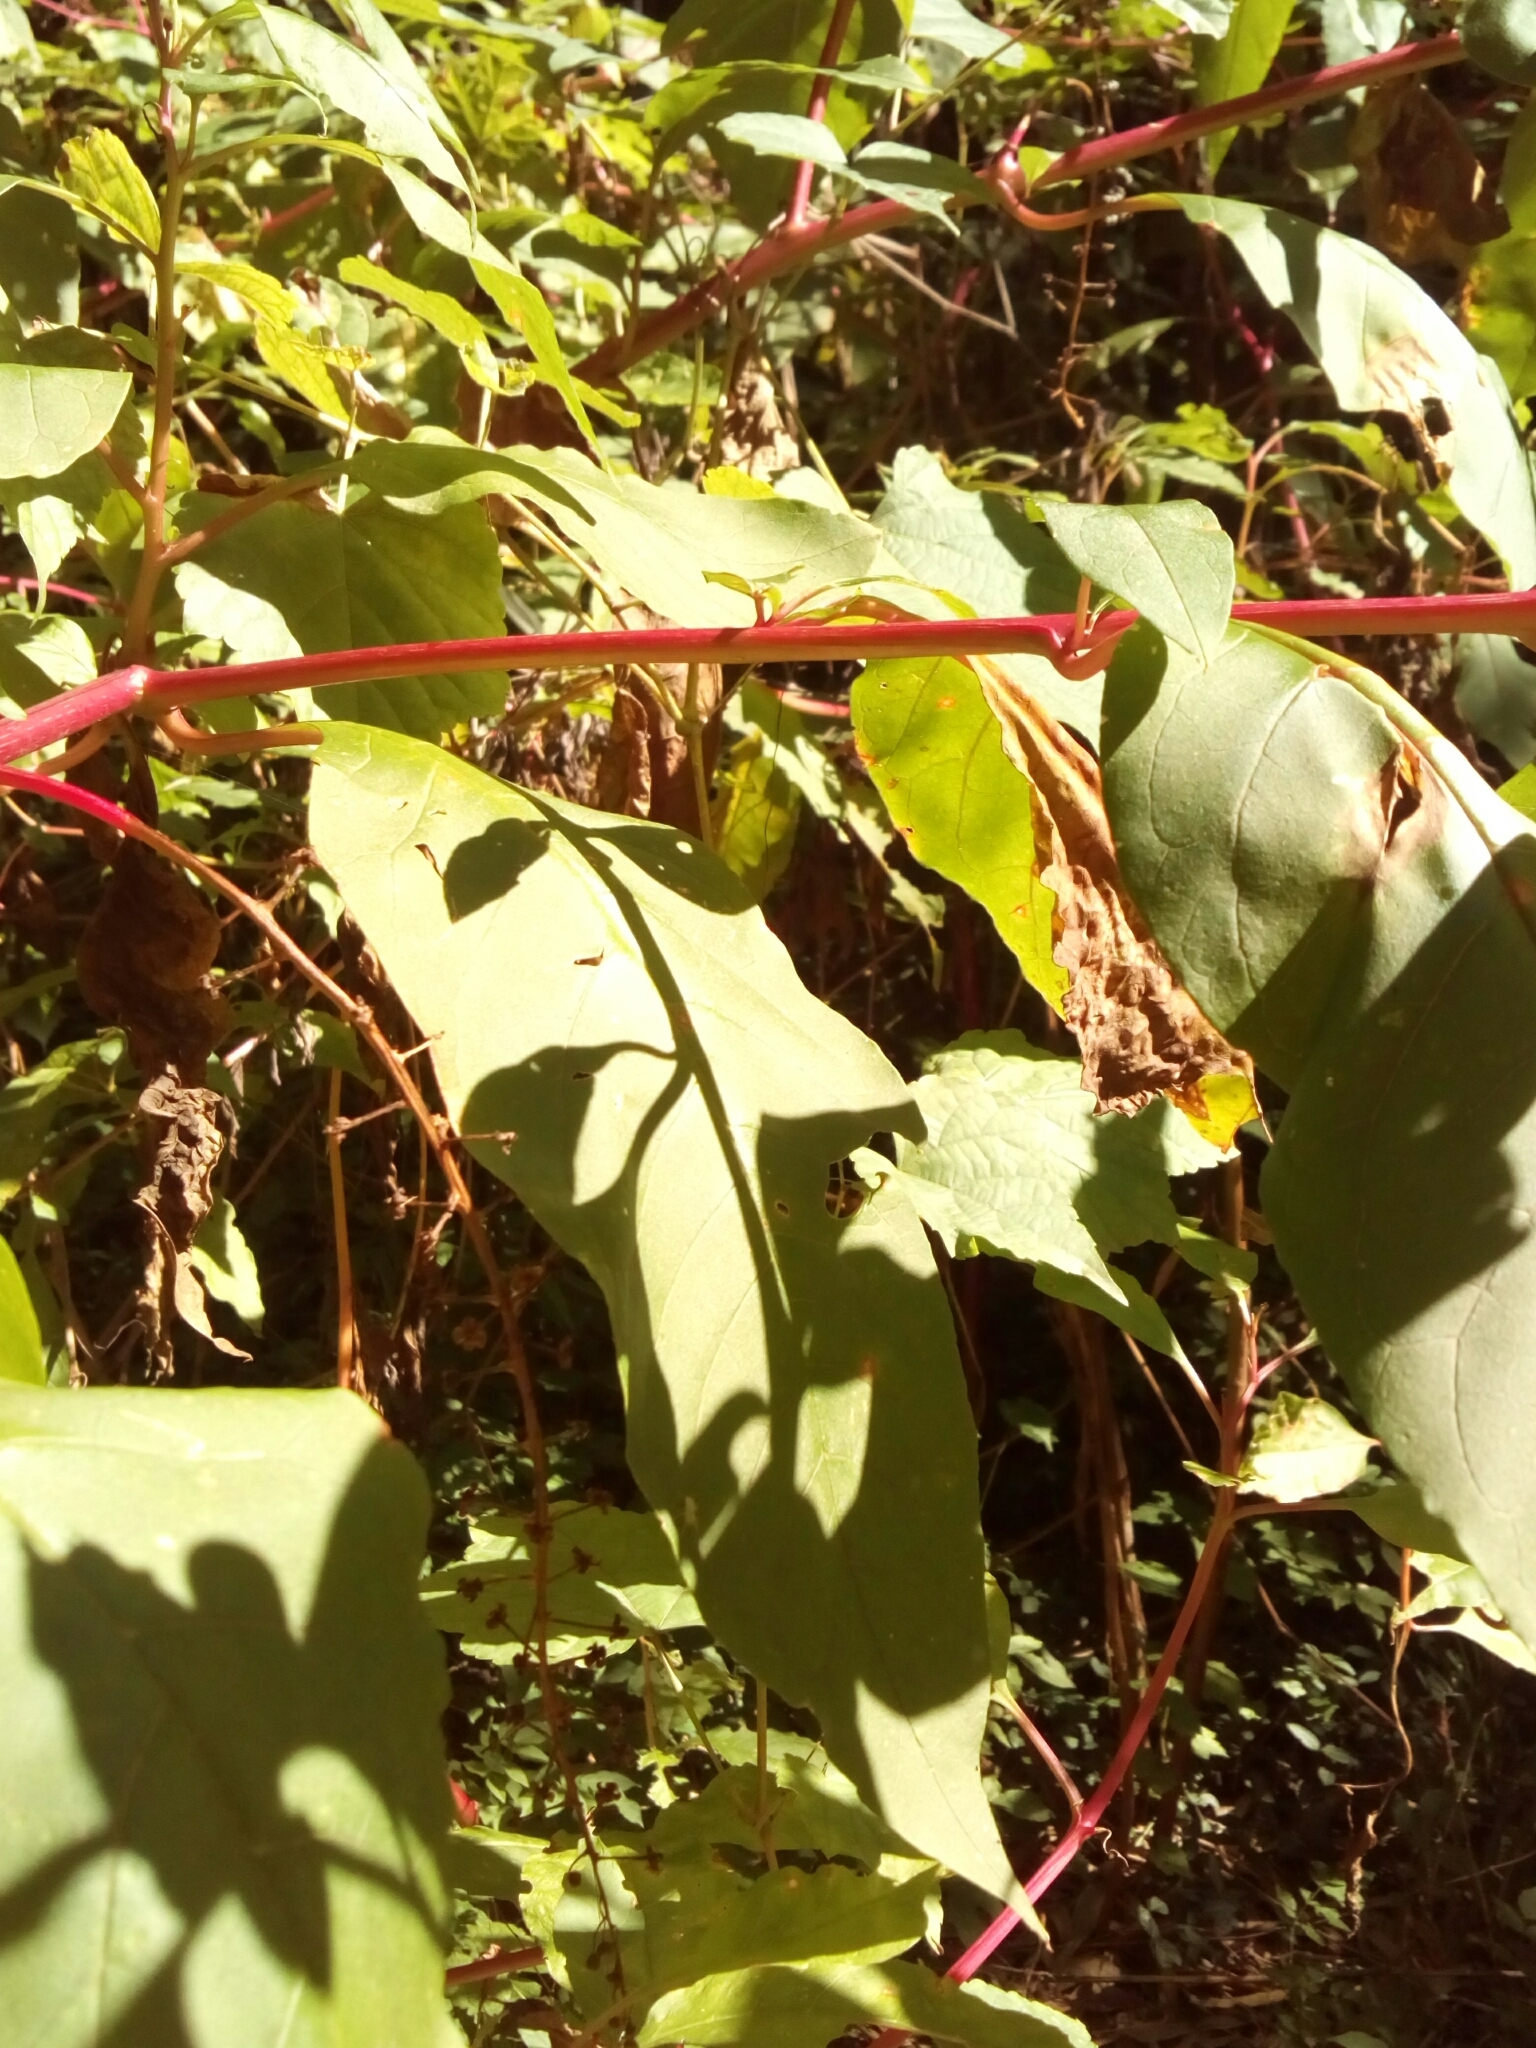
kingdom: Plantae
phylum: Tracheophyta
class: Magnoliopsida
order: Caryophyllales
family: Phytolaccaceae
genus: Phytolacca
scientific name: Phytolacca americana
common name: American pokeweed
